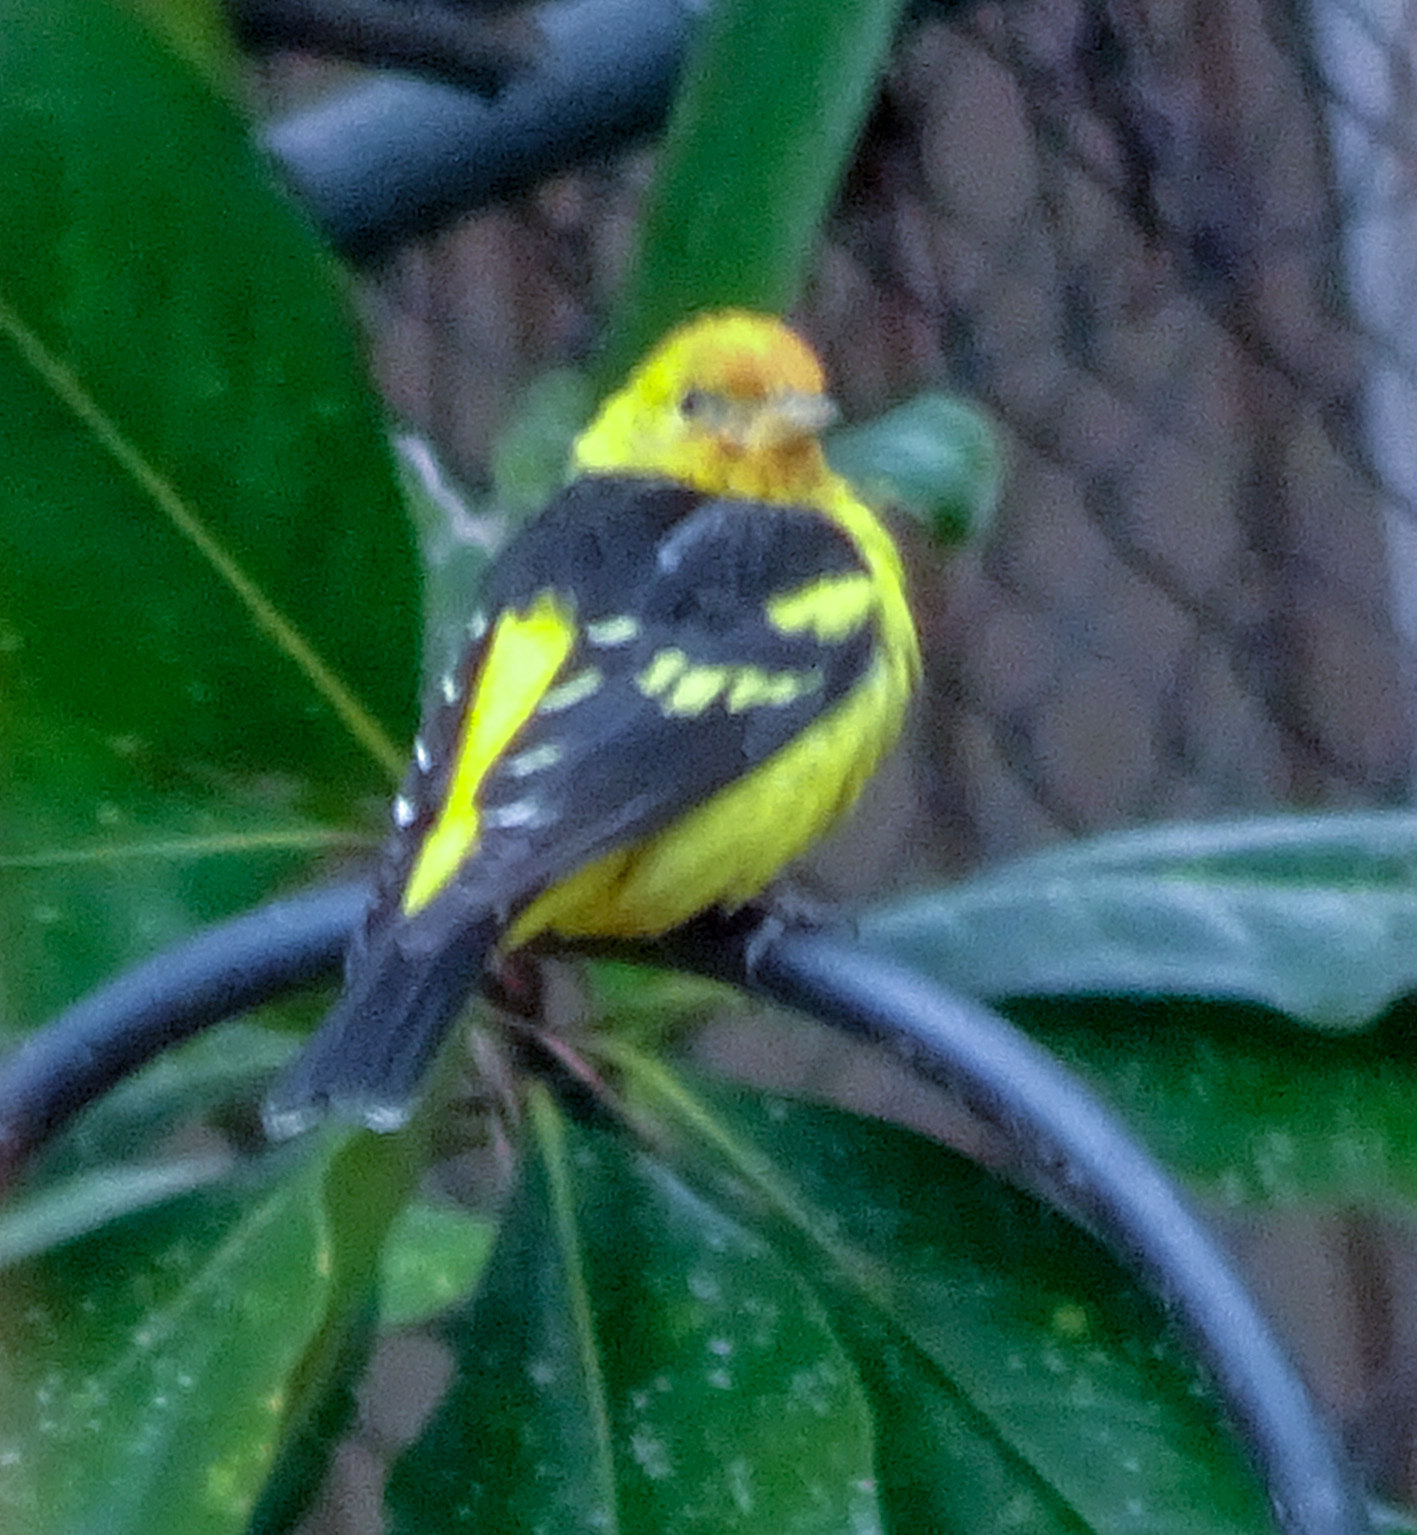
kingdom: Animalia
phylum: Chordata
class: Aves
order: Passeriformes
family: Cardinalidae
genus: Piranga
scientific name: Piranga ludoviciana
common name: Western tanager
